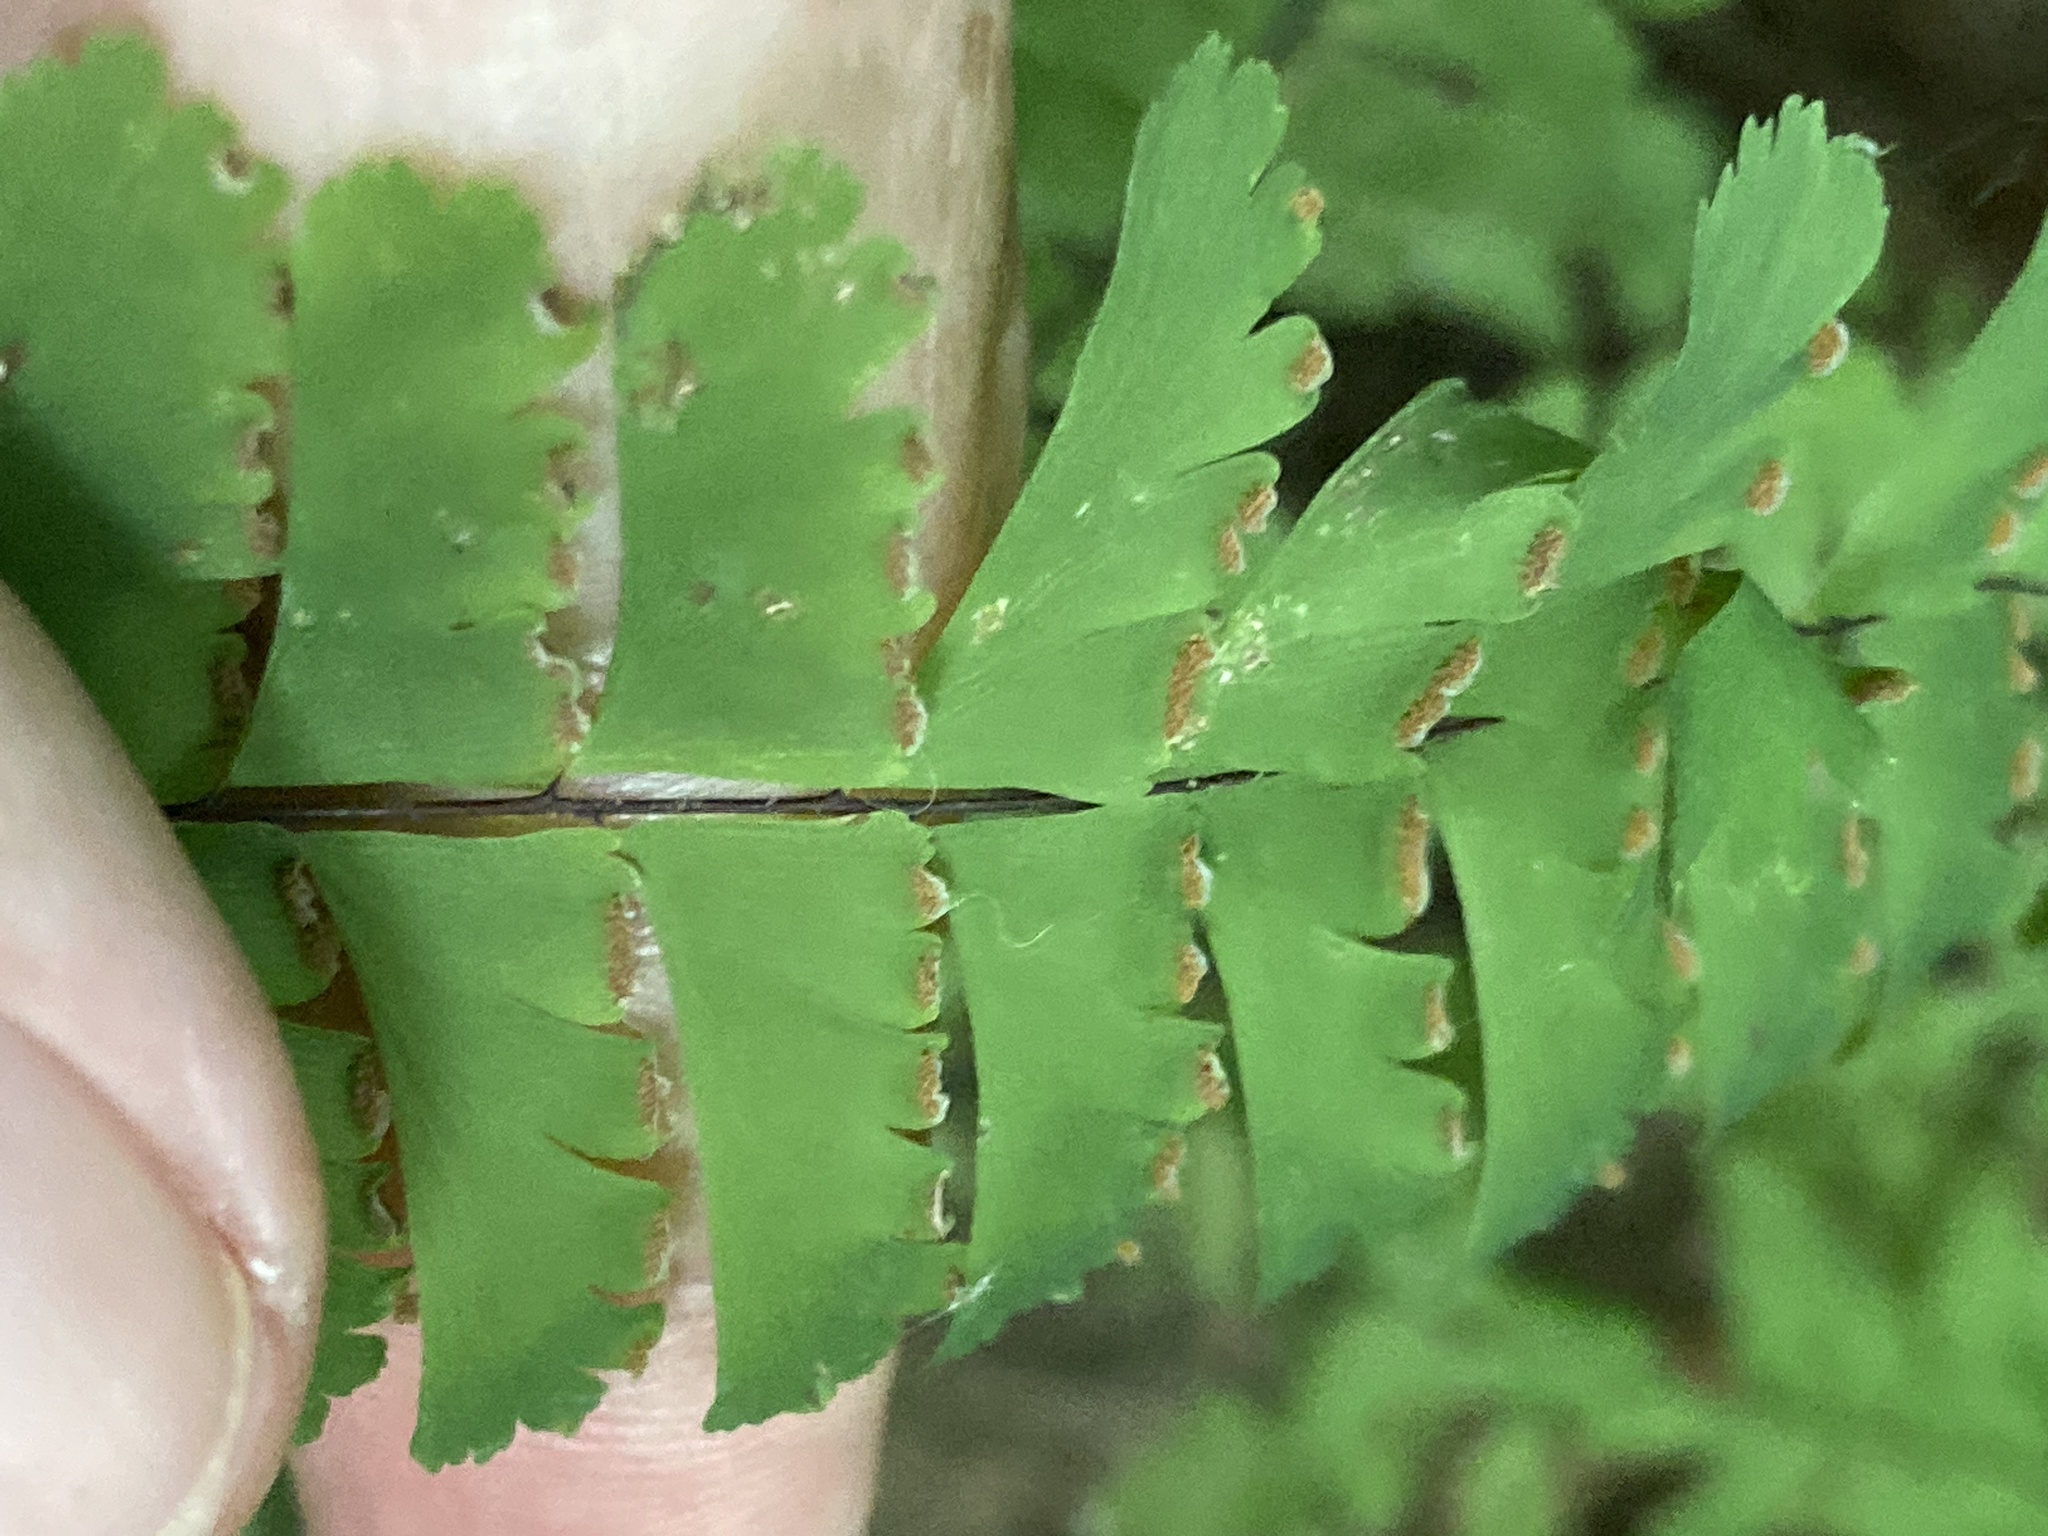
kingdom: Plantae
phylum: Tracheophyta
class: Polypodiopsida
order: Polypodiales
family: Pteridaceae
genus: Adiantum
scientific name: Adiantum aleuticum
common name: Aleutian maidenhair fern
